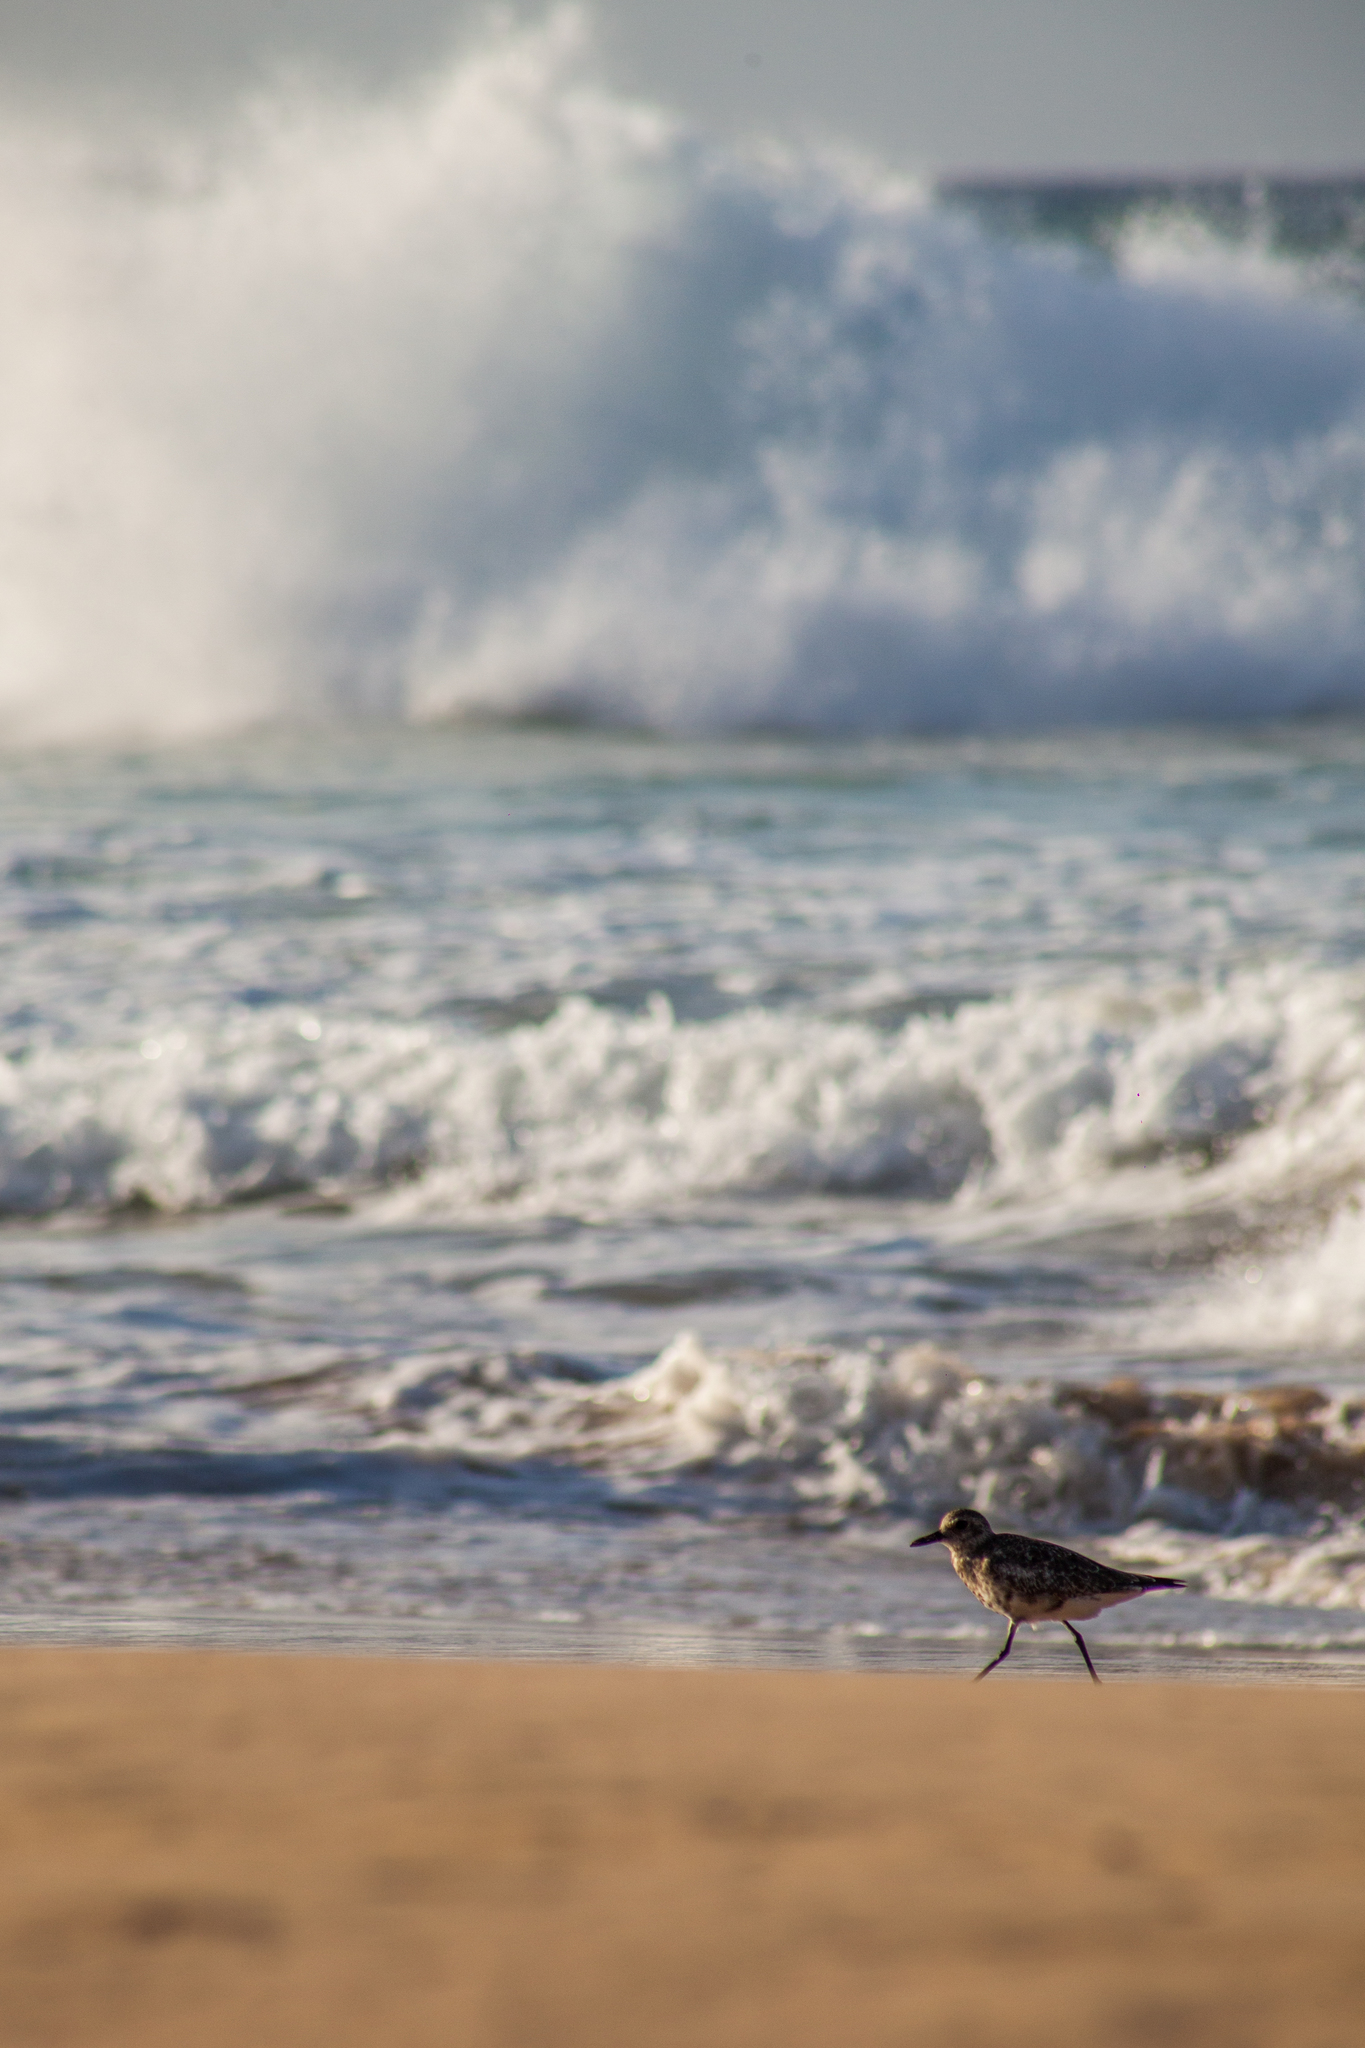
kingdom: Animalia
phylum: Chordata
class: Aves
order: Charadriiformes
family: Charadriidae
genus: Pluvialis
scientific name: Pluvialis squatarola
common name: Grey plover
